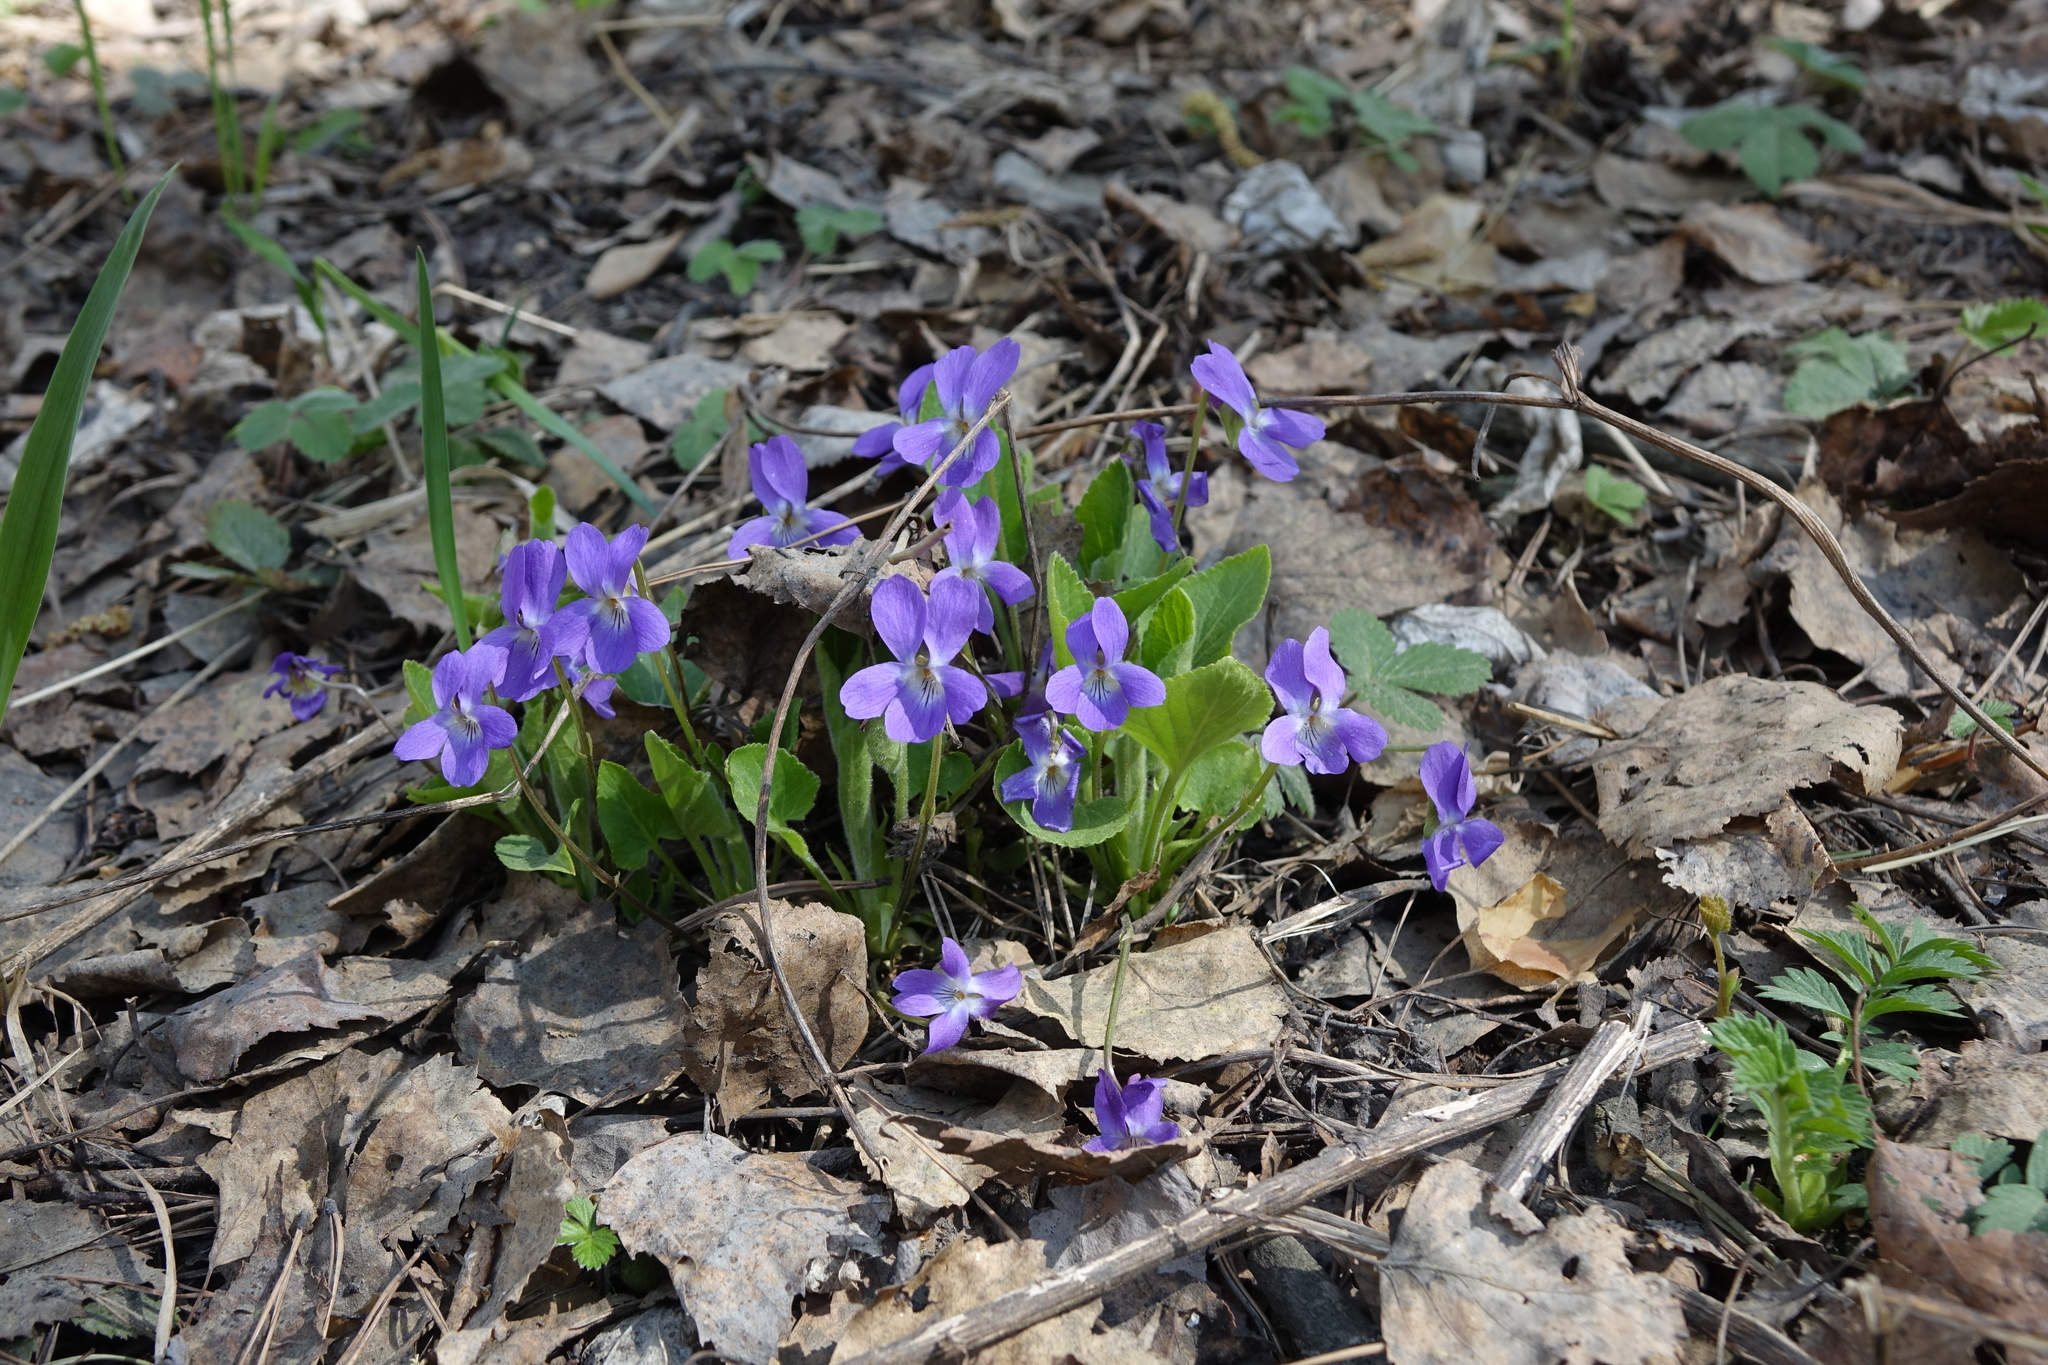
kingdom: Plantae
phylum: Tracheophyta
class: Magnoliopsida
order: Malpighiales
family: Violaceae
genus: Viola
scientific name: Viola hirta
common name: Hairy violet
